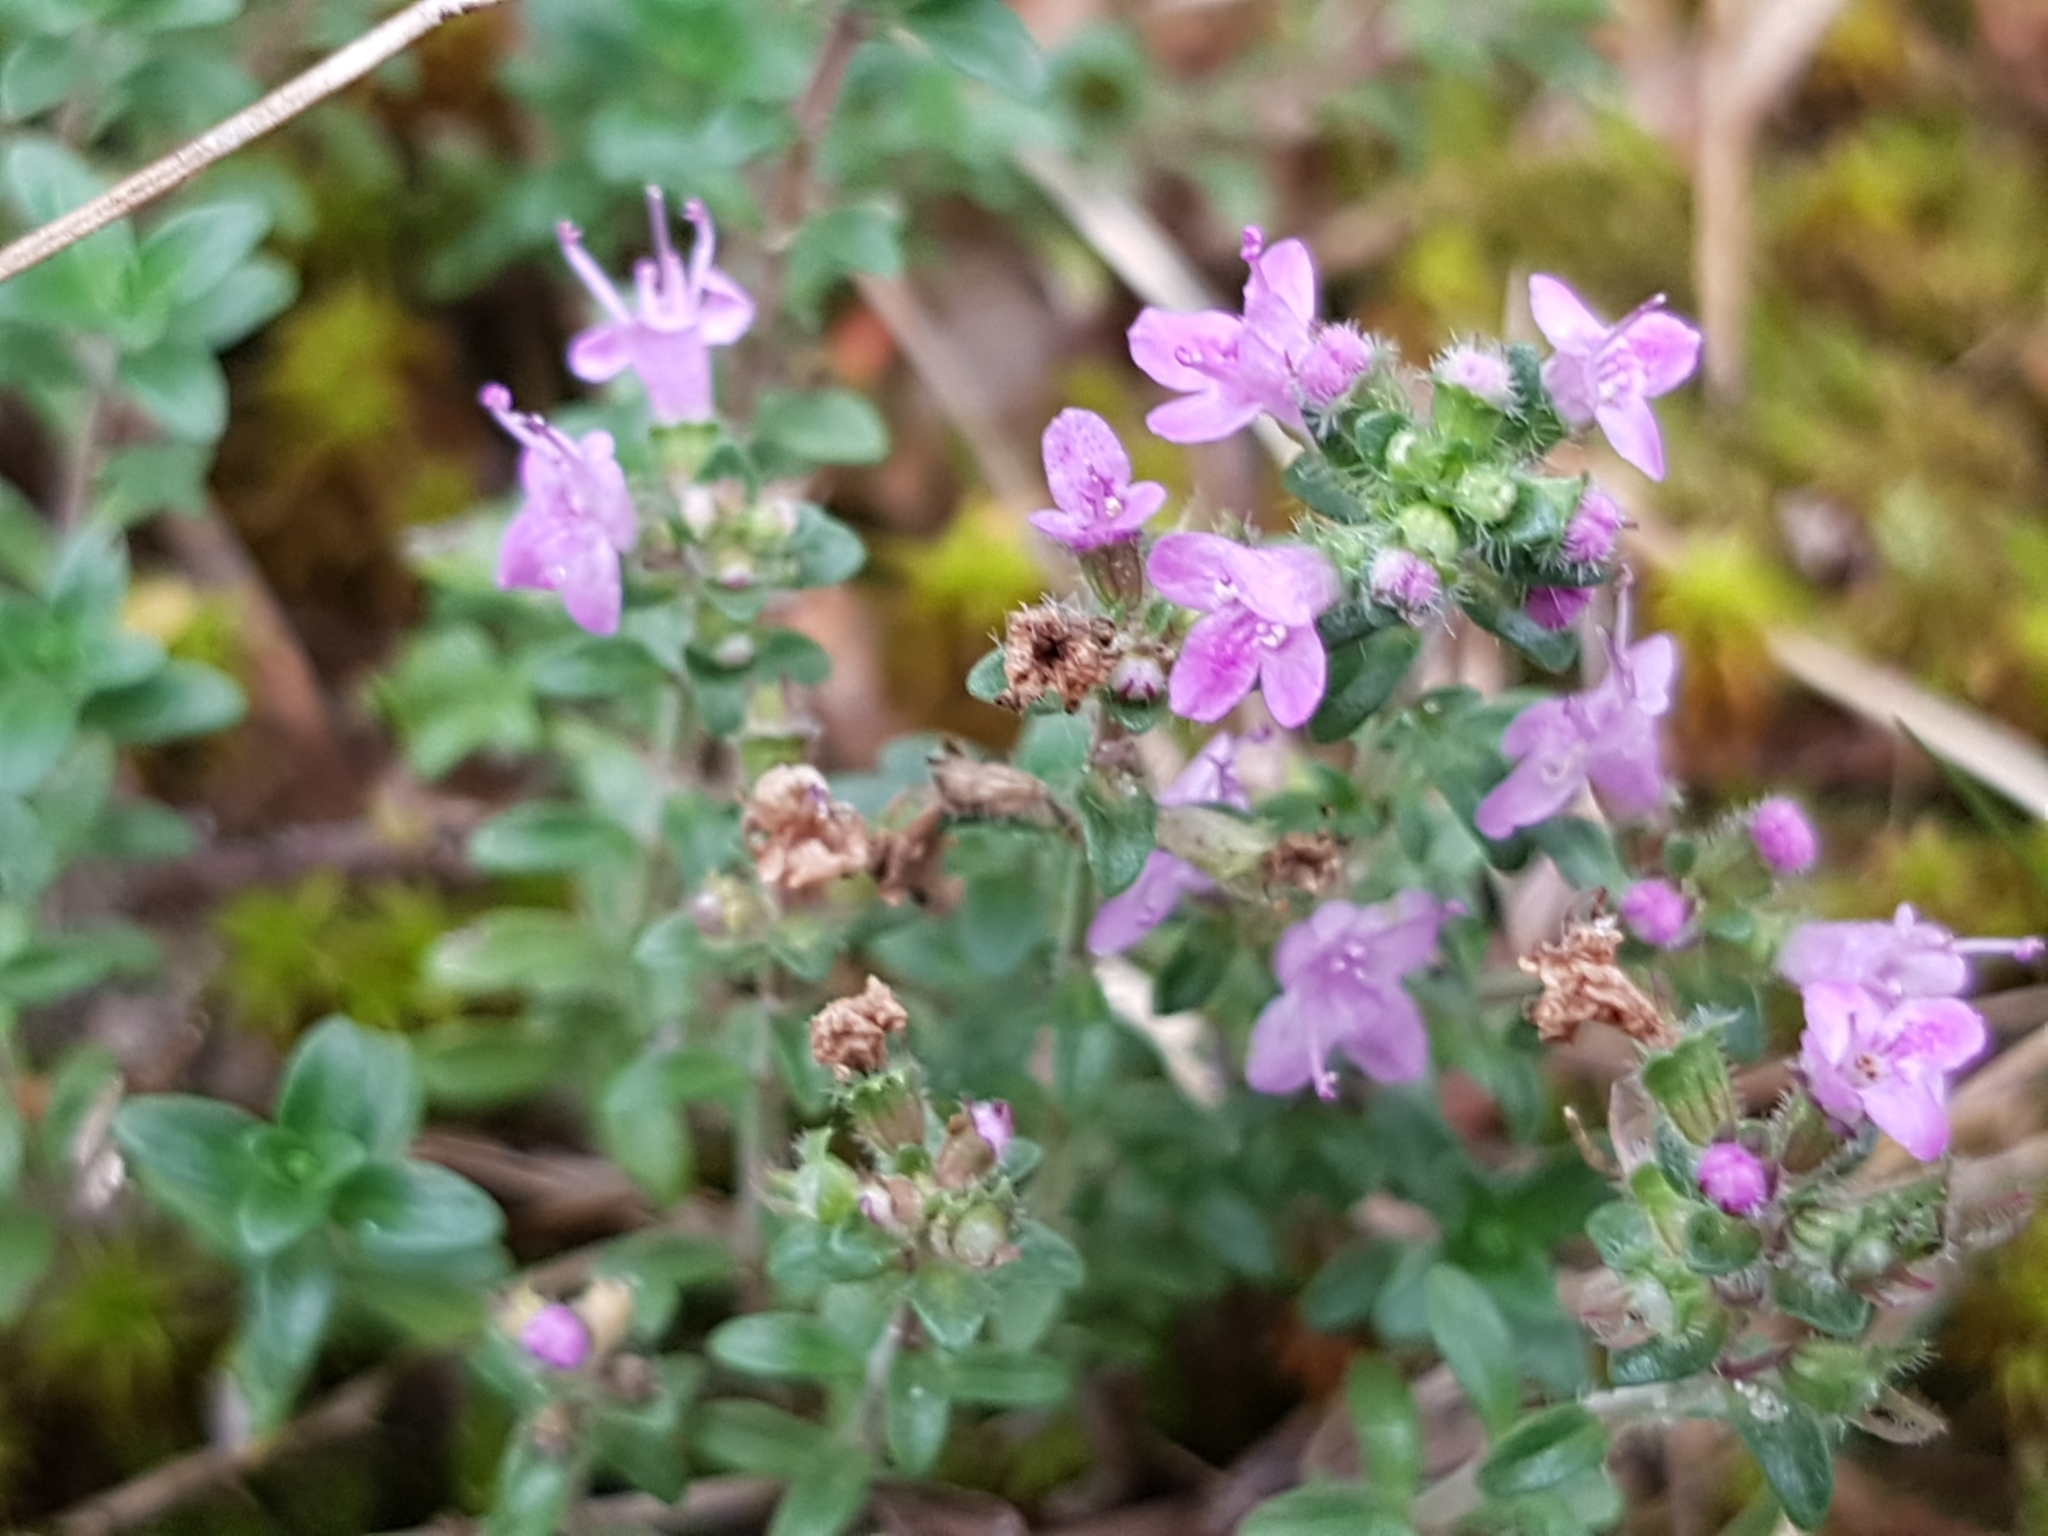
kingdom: Plantae
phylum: Tracheophyta
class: Magnoliopsida
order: Lamiales
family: Lamiaceae
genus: Thymus
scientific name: Thymus serpyllum
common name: Breckland thyme
